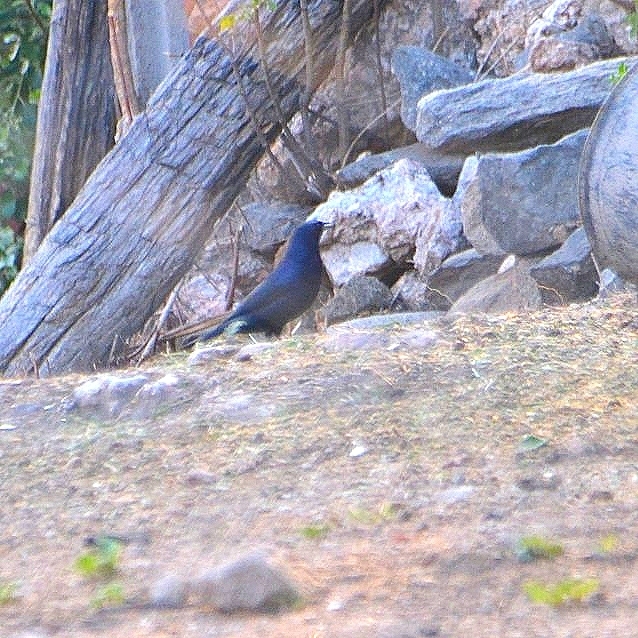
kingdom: Animalia
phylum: Chordata
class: Aves
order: Passeriformes
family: Icteridae
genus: Molothrus
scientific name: Molothrus bonariensis
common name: Shiny cowbird
